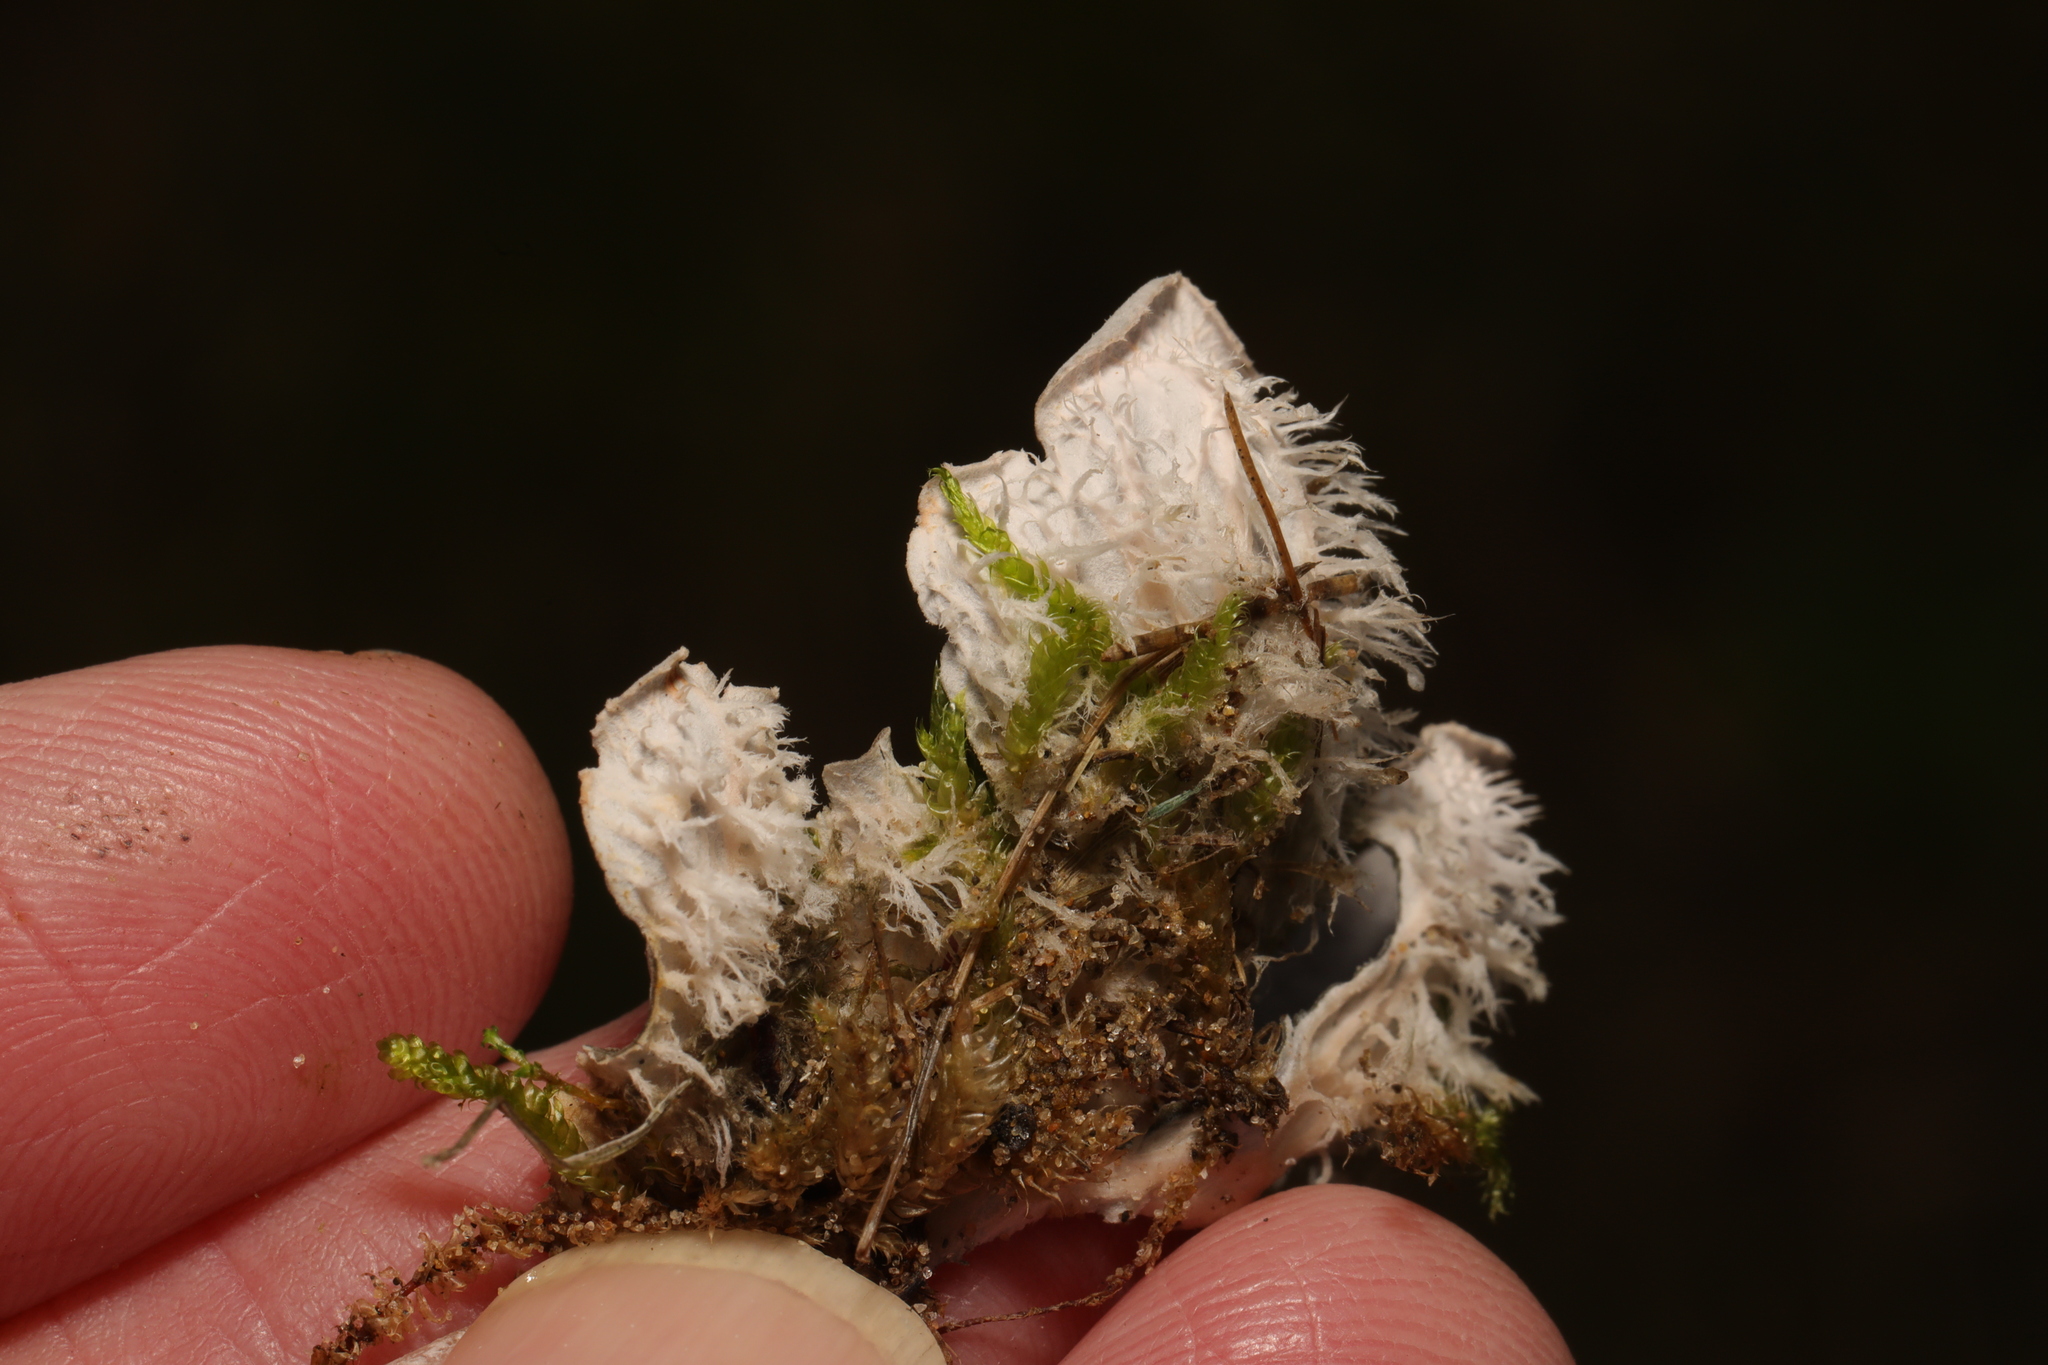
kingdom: Fungi
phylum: Ascomycota
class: Lecanoromycetes
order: Peltigerales
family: Peltigeraceae
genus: Peltigera
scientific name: Peltigera canina
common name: Dog pelt lichen
